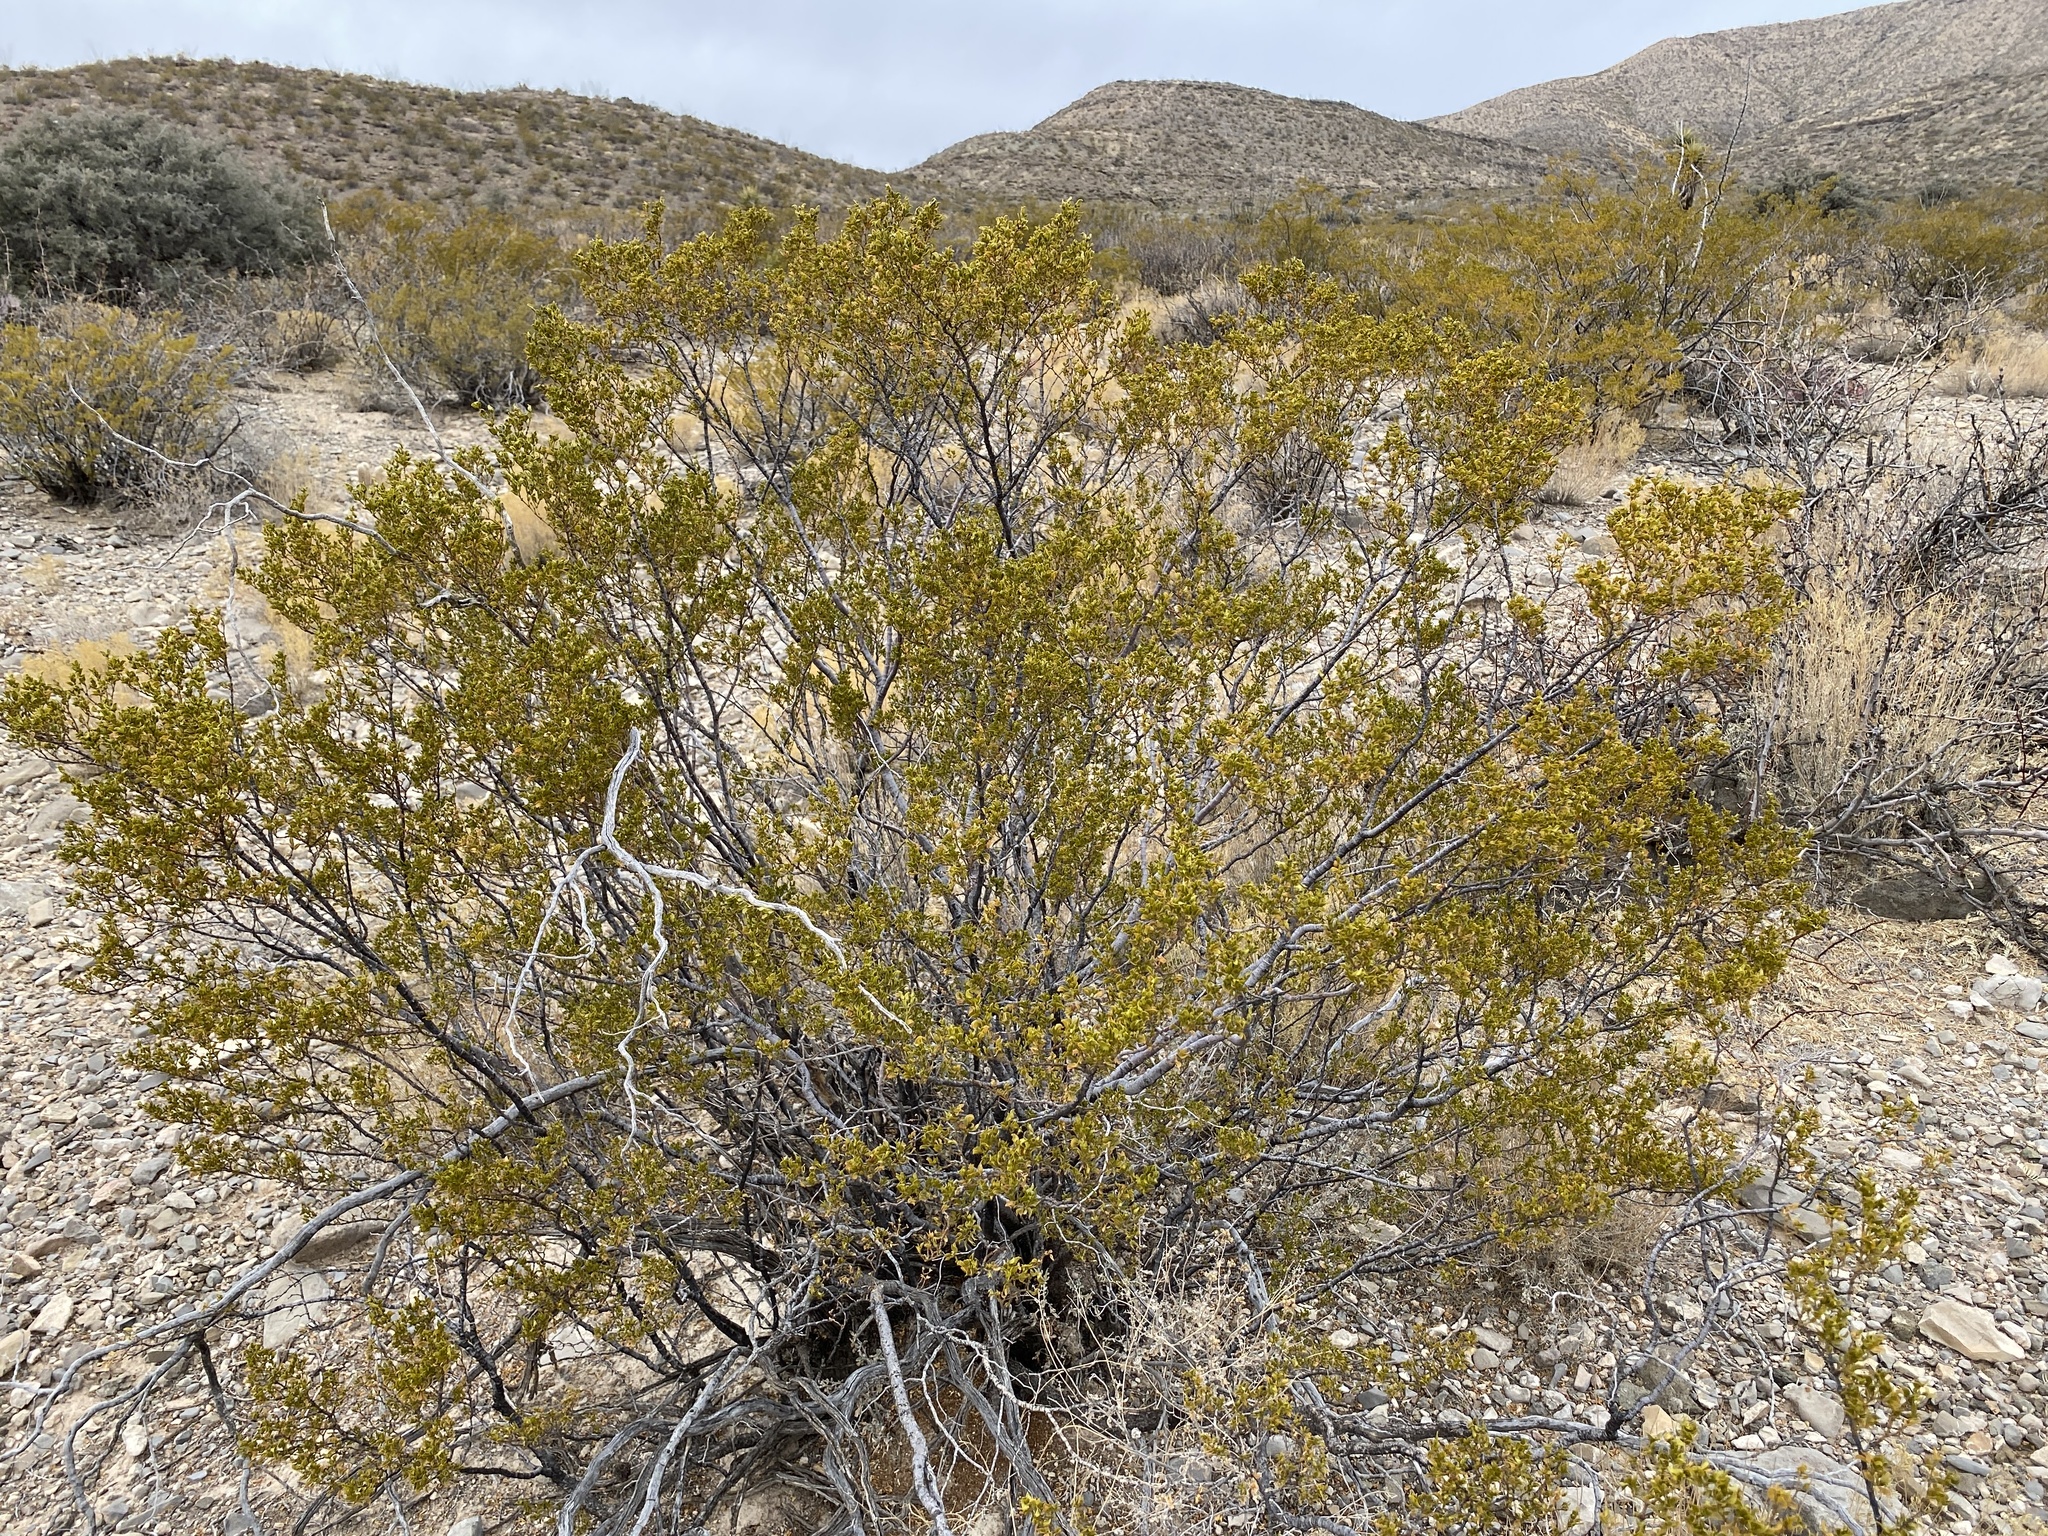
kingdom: Plantae
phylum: Tracheophyta
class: Magnoliopsida
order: Zygophyllales
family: Zygophyllaceae
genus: Larrea
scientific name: Larrea tridentata
